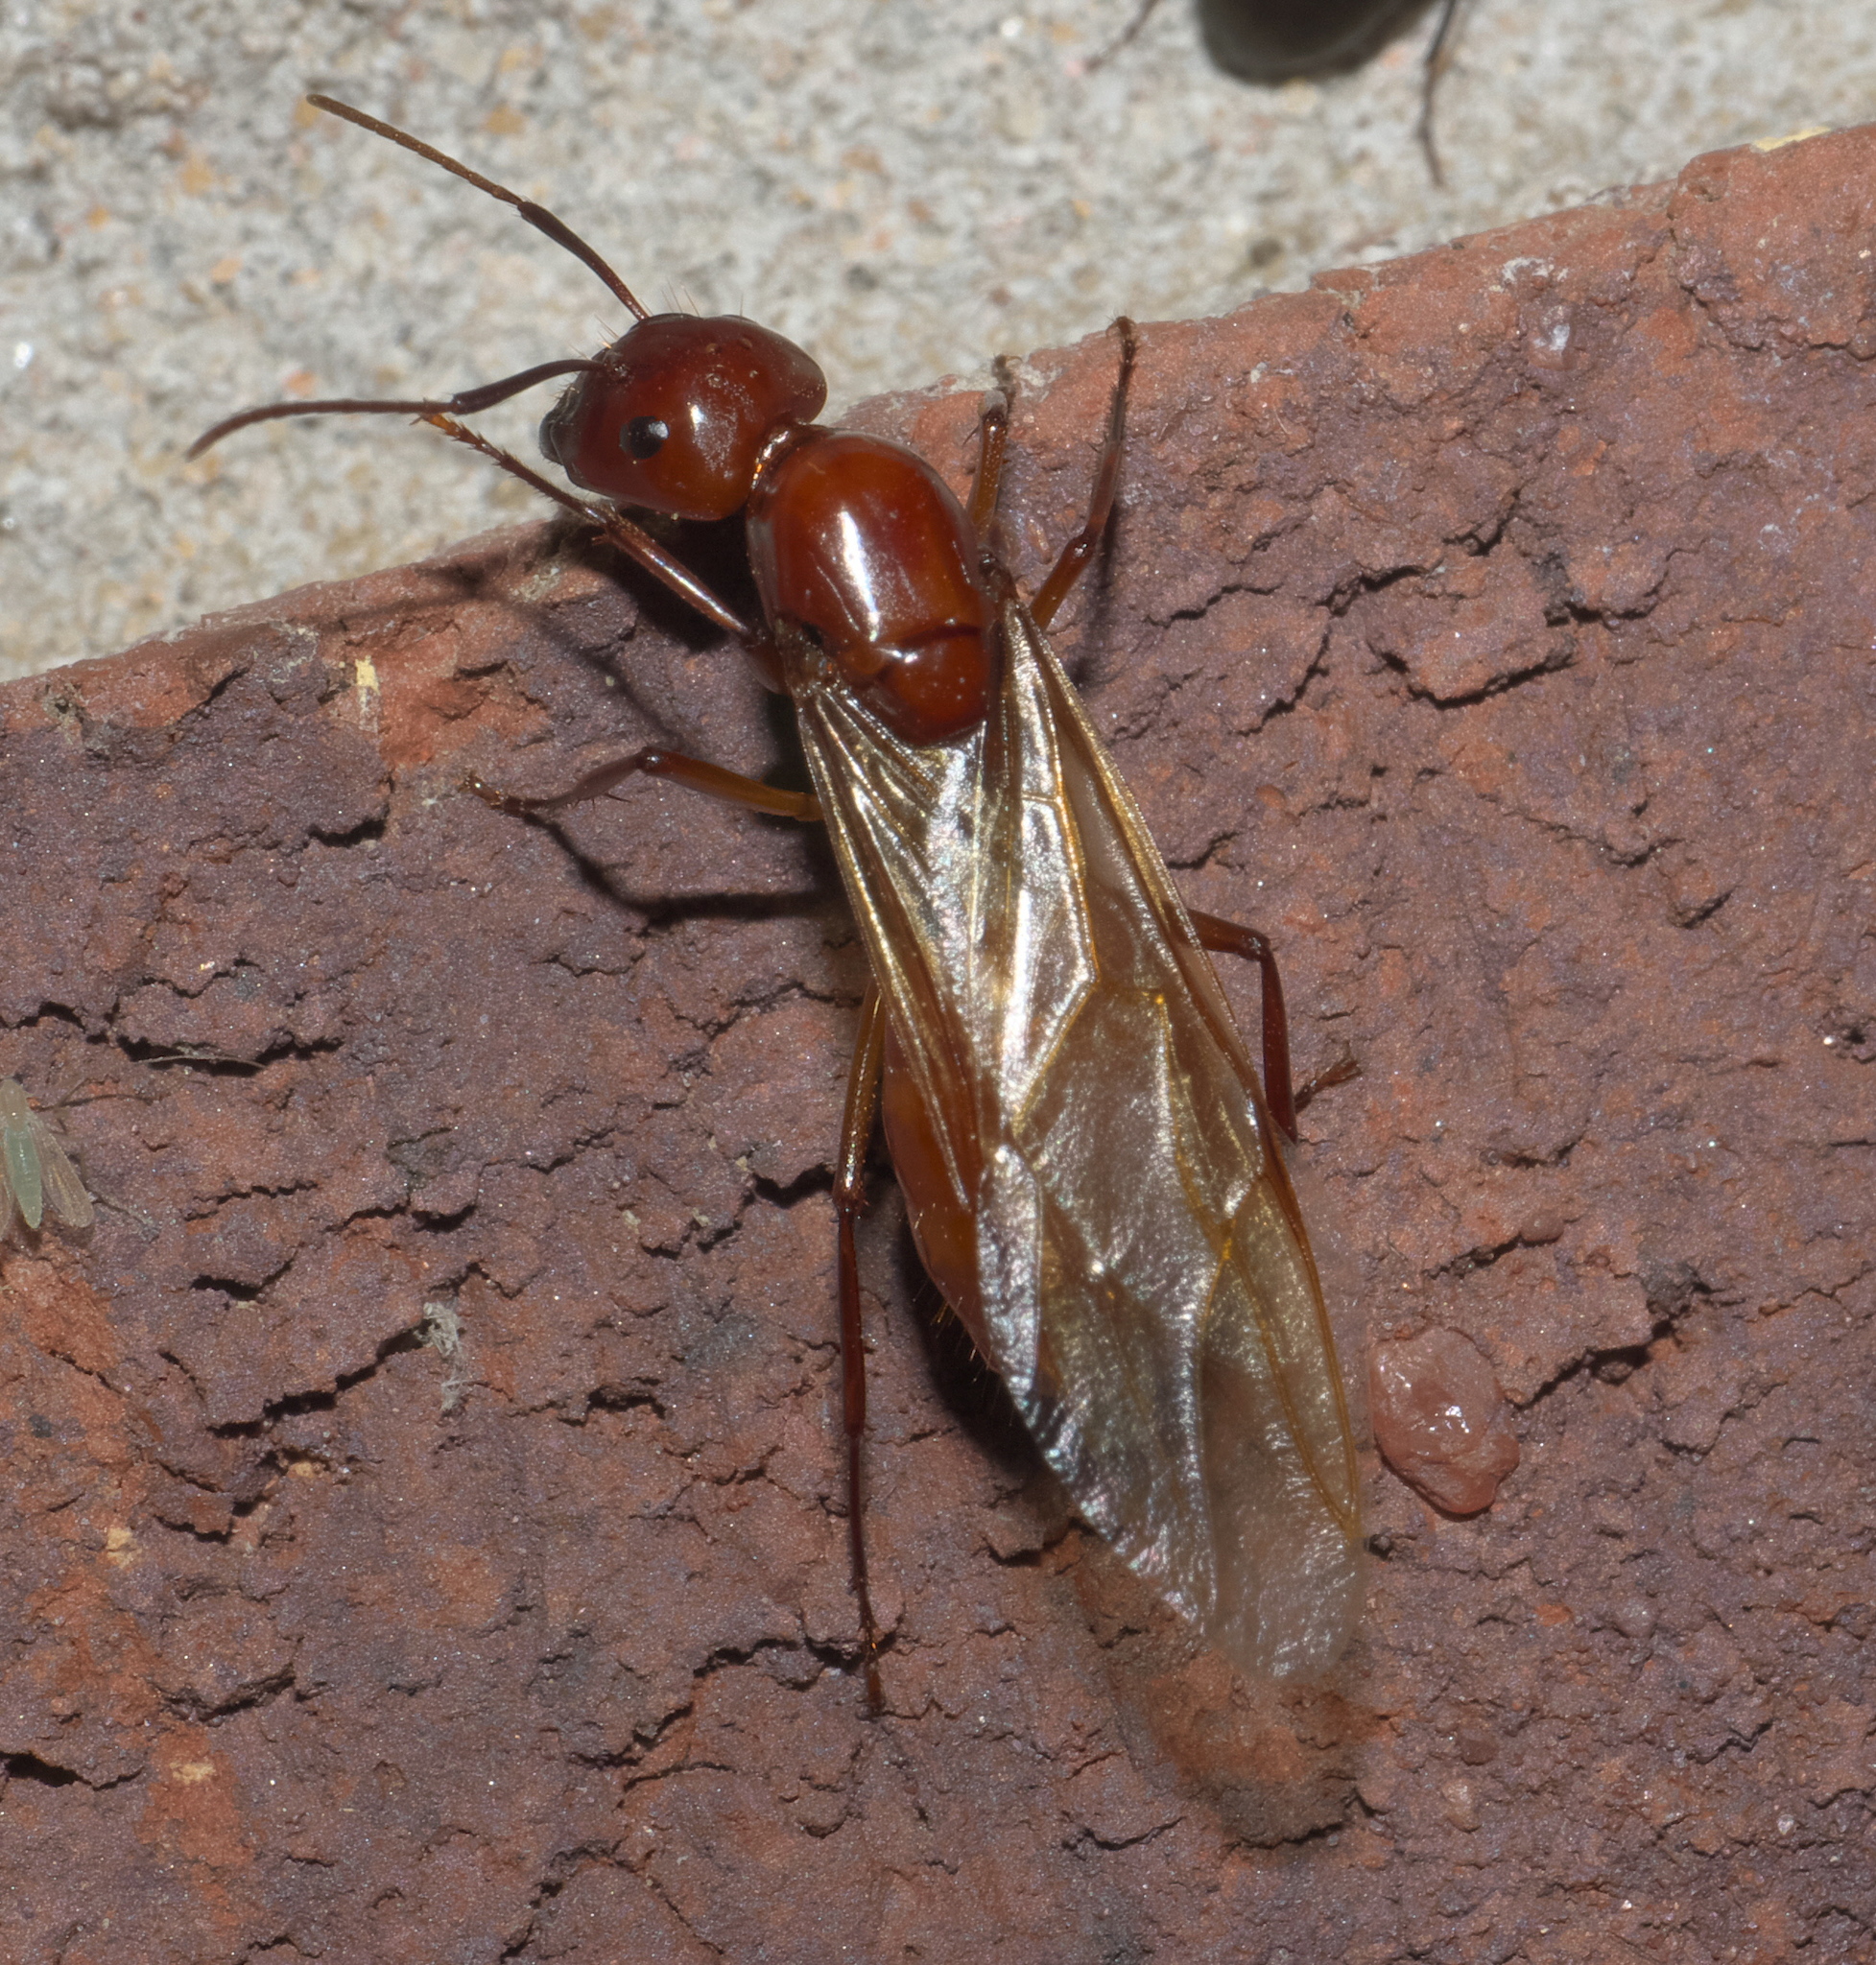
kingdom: Animalia
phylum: Arthropoda
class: Insecta
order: Hymenoptera
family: Formicidae
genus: Camponotus
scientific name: Camponotus castaneus
